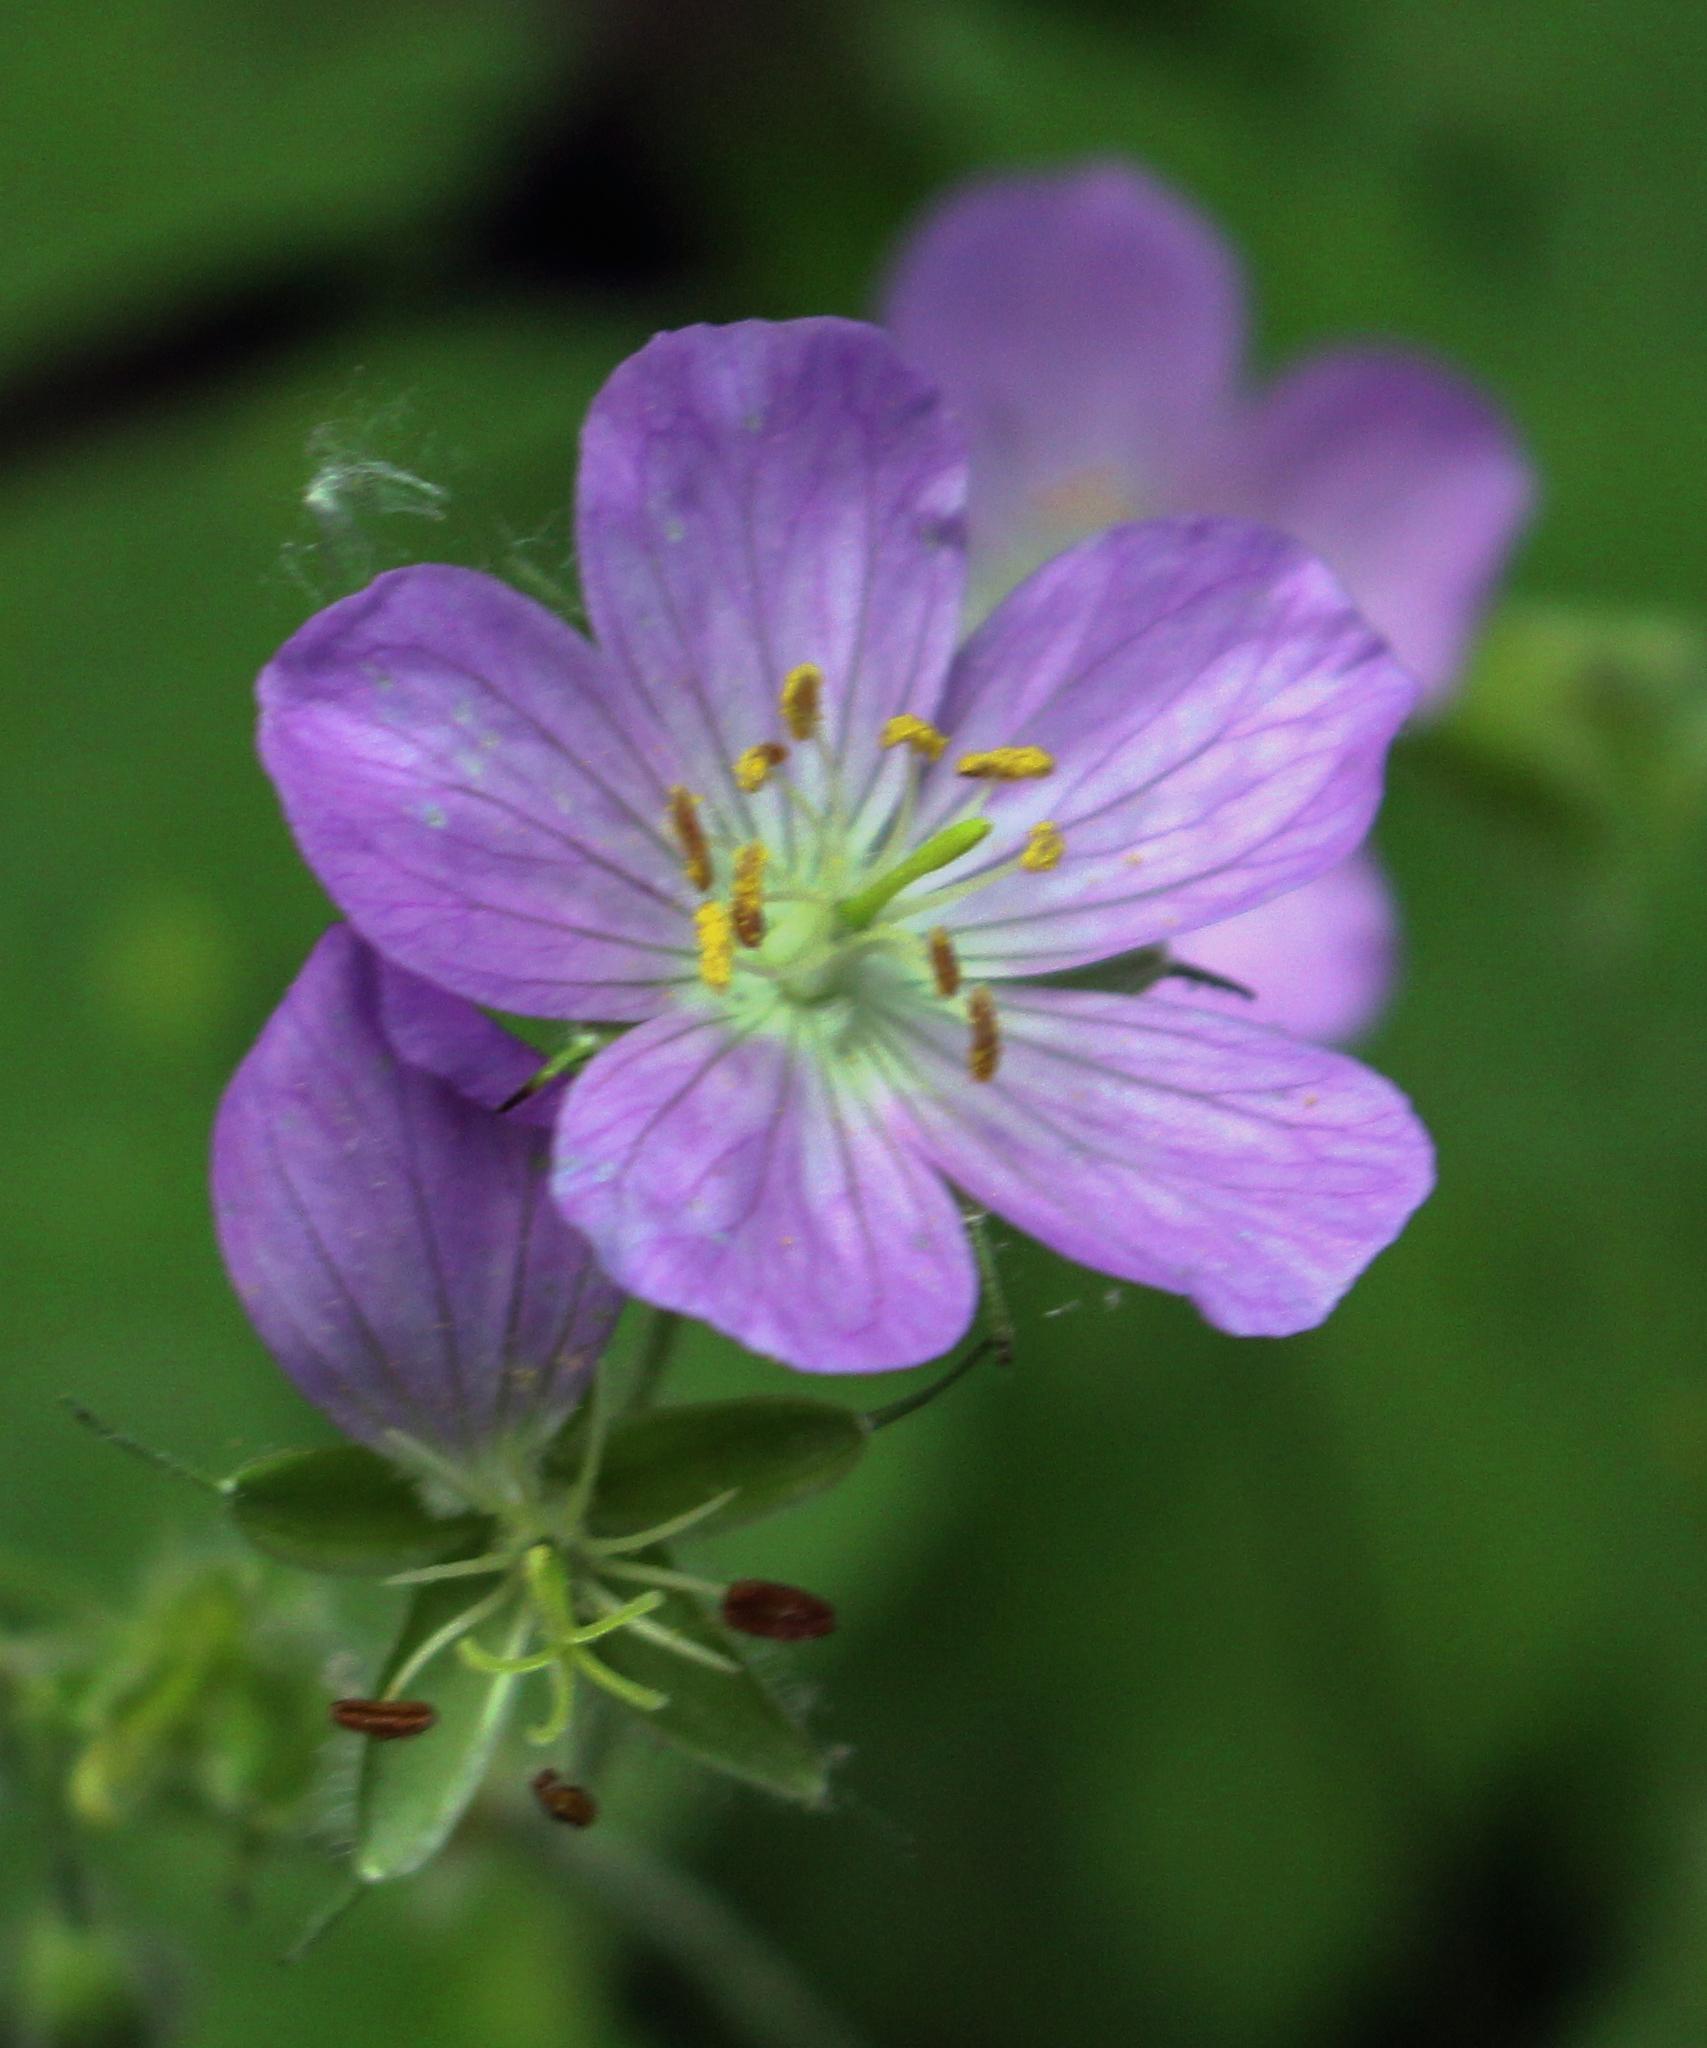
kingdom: Plantae
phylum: Tracheophyta
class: Magnoliopsida
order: Geraniales
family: Geraniaceae
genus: Geranium
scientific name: Geranium maculatum
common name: Spotted geranium
